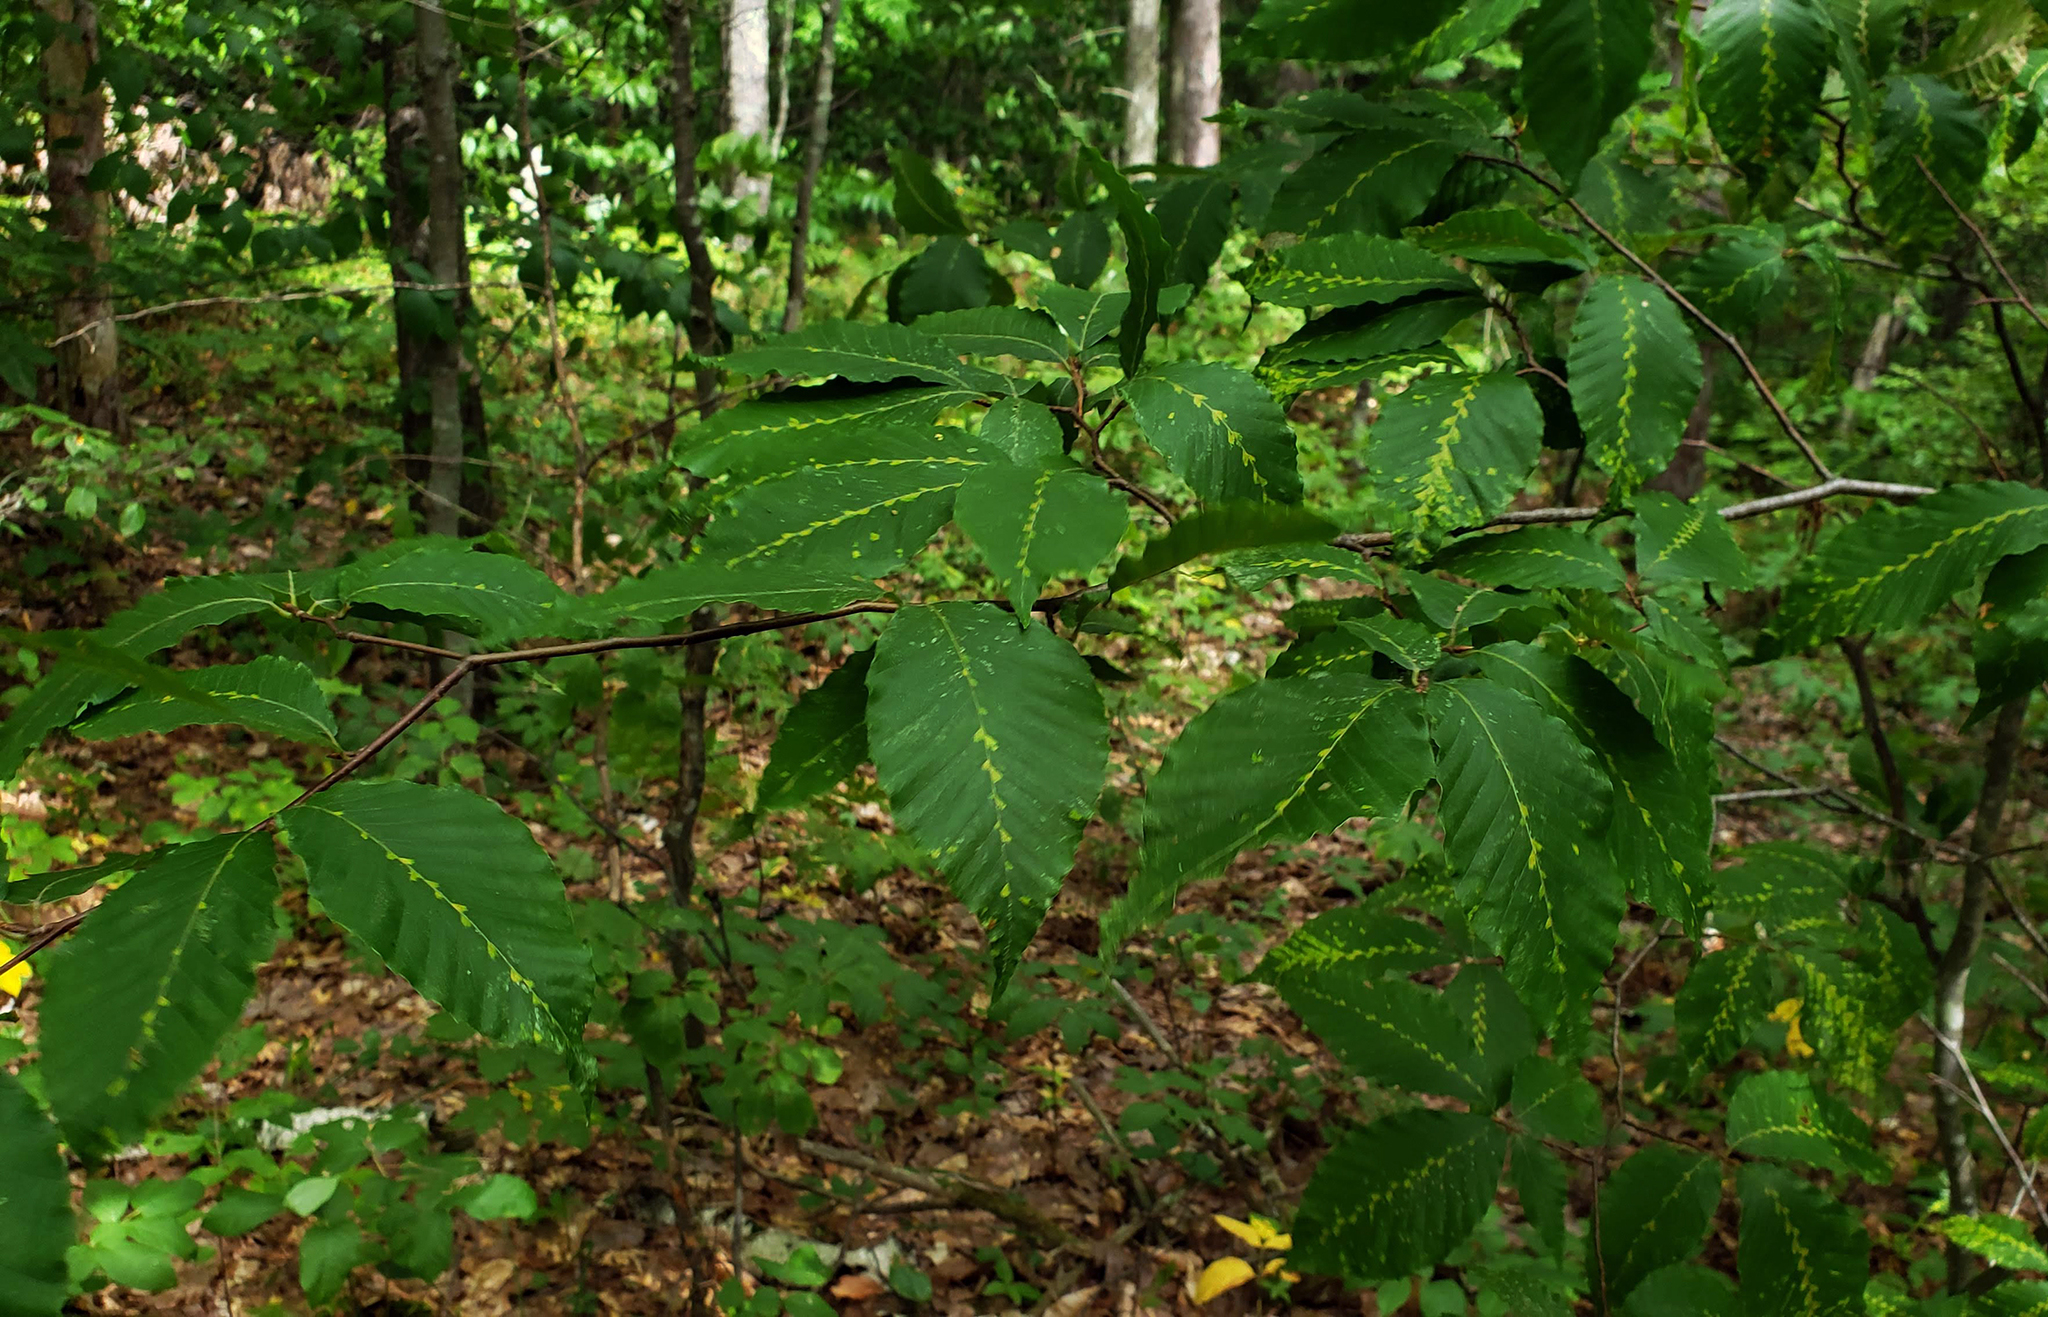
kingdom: Plantae
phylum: Tracheophyta
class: Magnoliopsida
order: Fagales
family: Fagaceae
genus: Fagus
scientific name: Fagus grandifolia
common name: American beech
